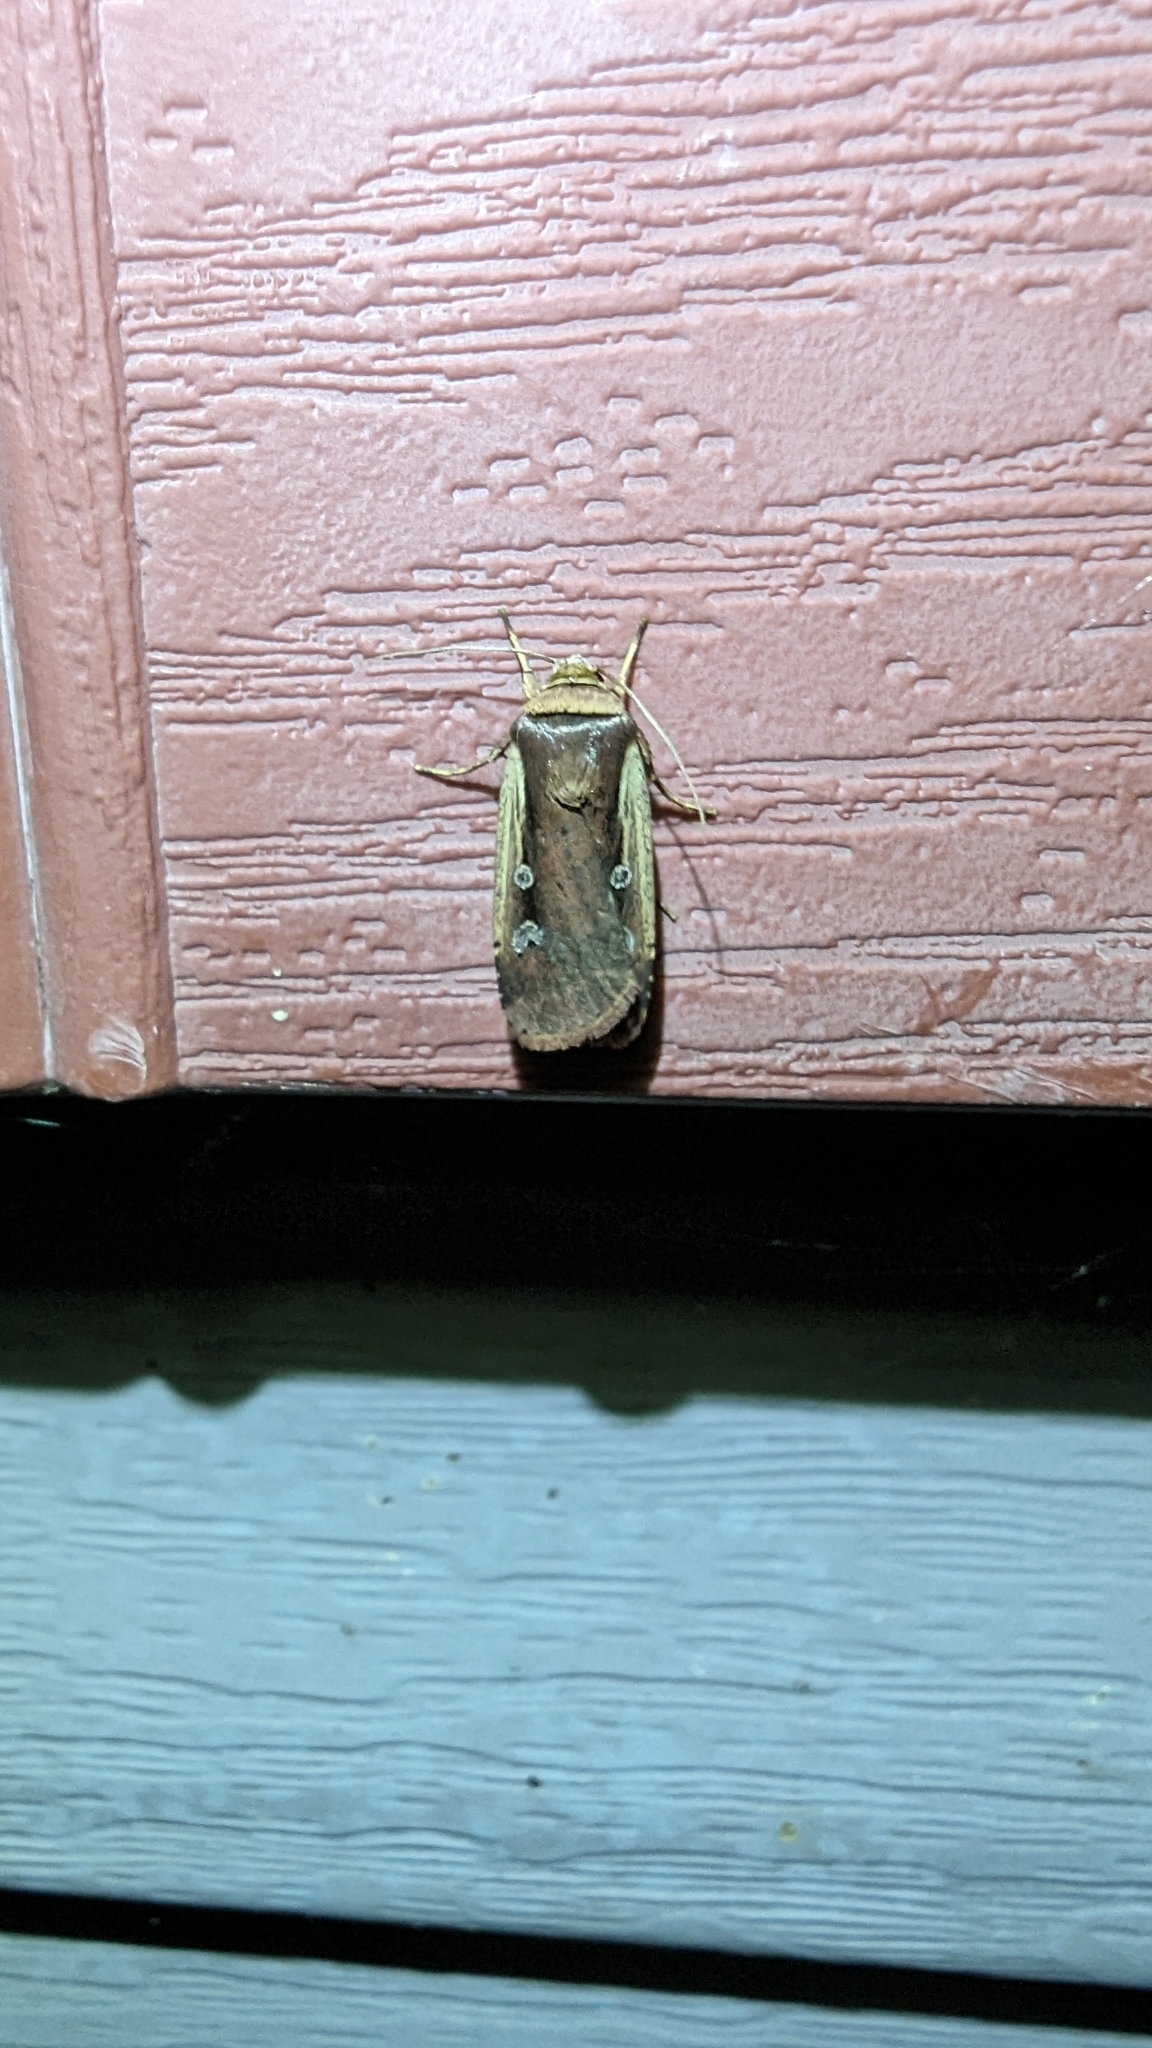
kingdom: Animalia
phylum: Arthropoda
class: Insecta
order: Lepidoptera
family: Noctuidae
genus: Ochropleura
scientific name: Ochropleura implecta
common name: Flame-shouldered dart
